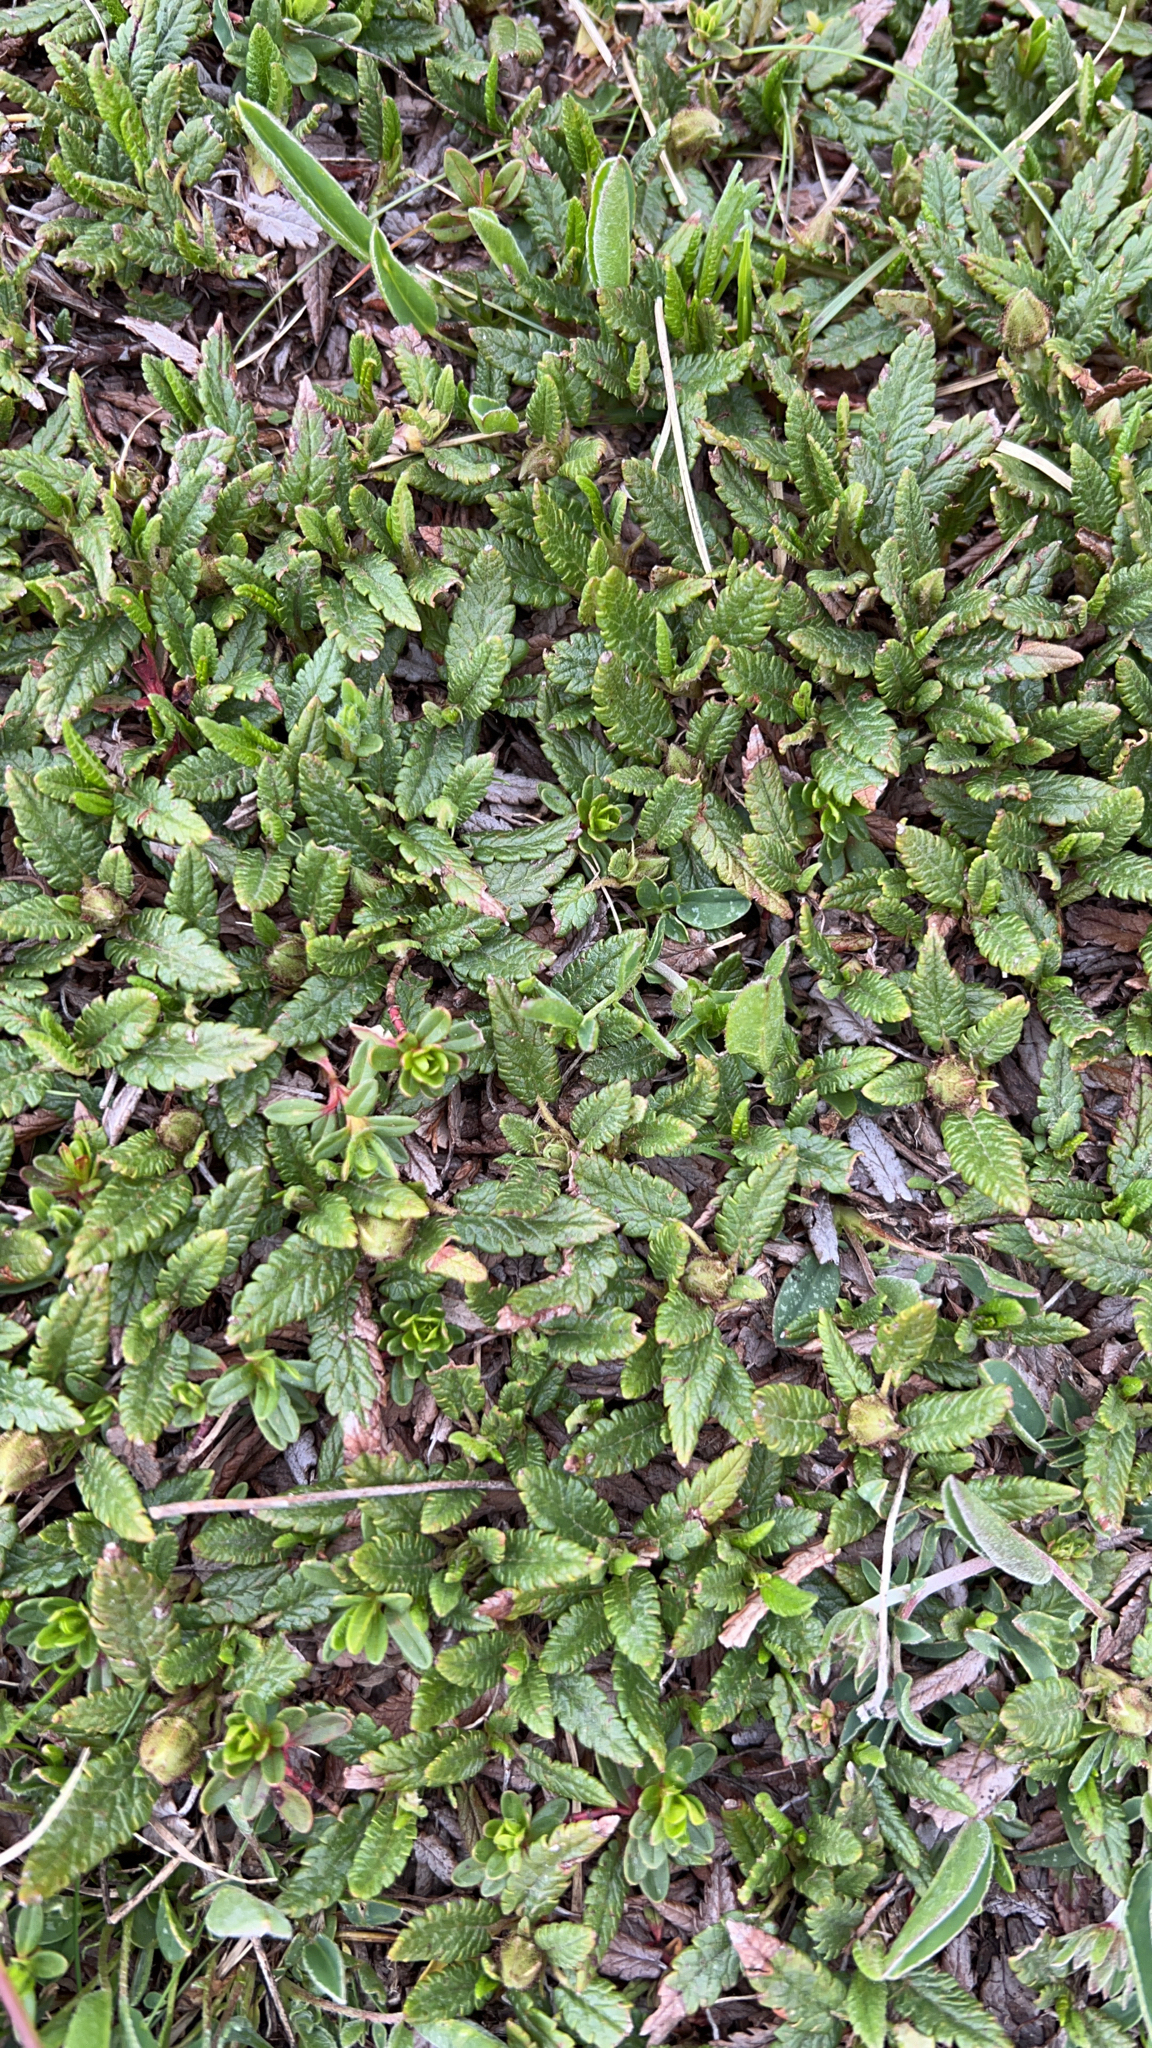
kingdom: Plantae
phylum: Tracheophyta
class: Magnoliopsida
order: Rosales
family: Rosaceae
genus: Dryas
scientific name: Dryas octopetala
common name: Eight-petal mountain-avens
